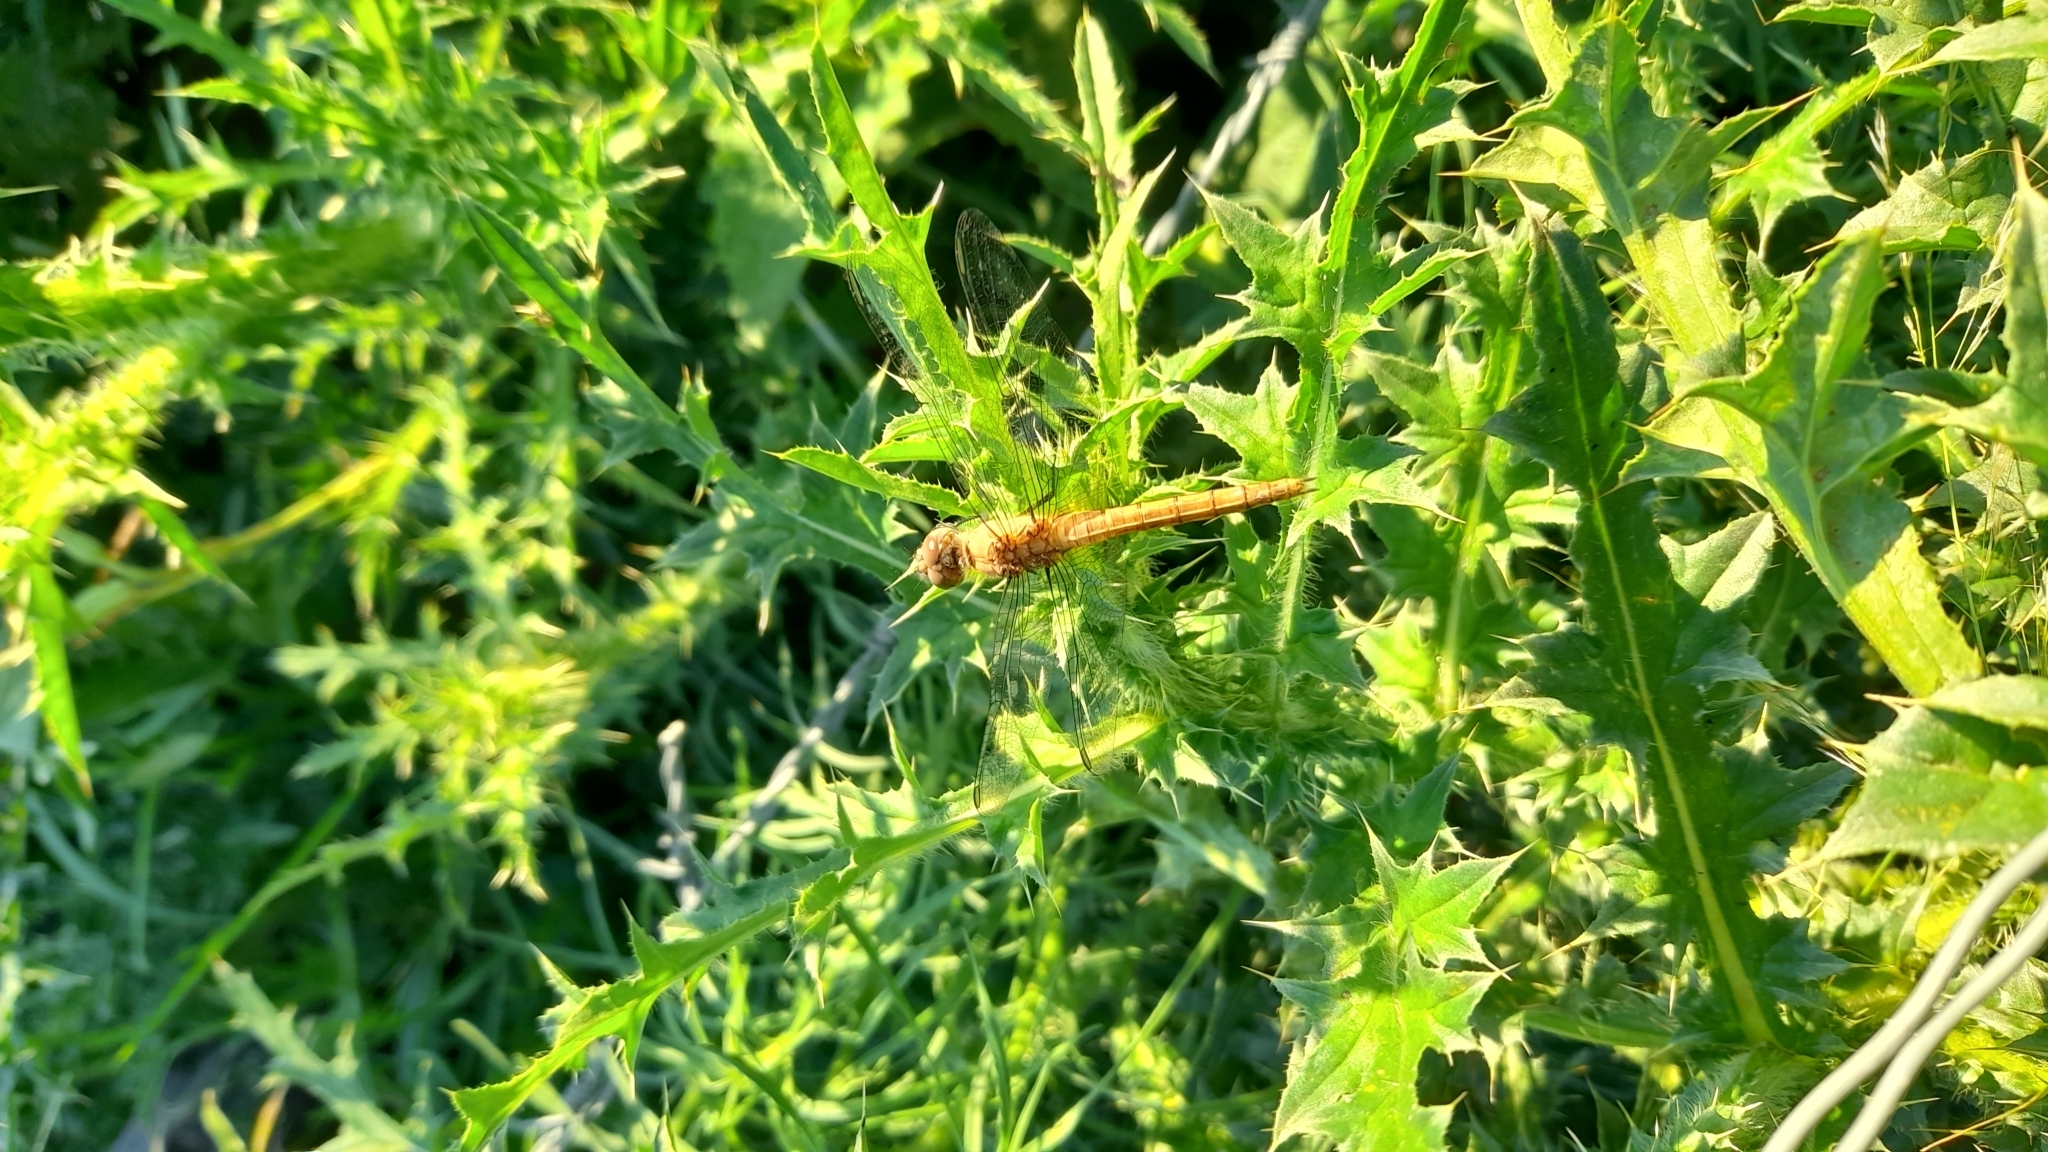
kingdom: Animalia
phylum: Arthropoda
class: Insecta
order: Odonata
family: Libellulidae
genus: Pantala
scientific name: Pantala flavescens
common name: Wandering glider
